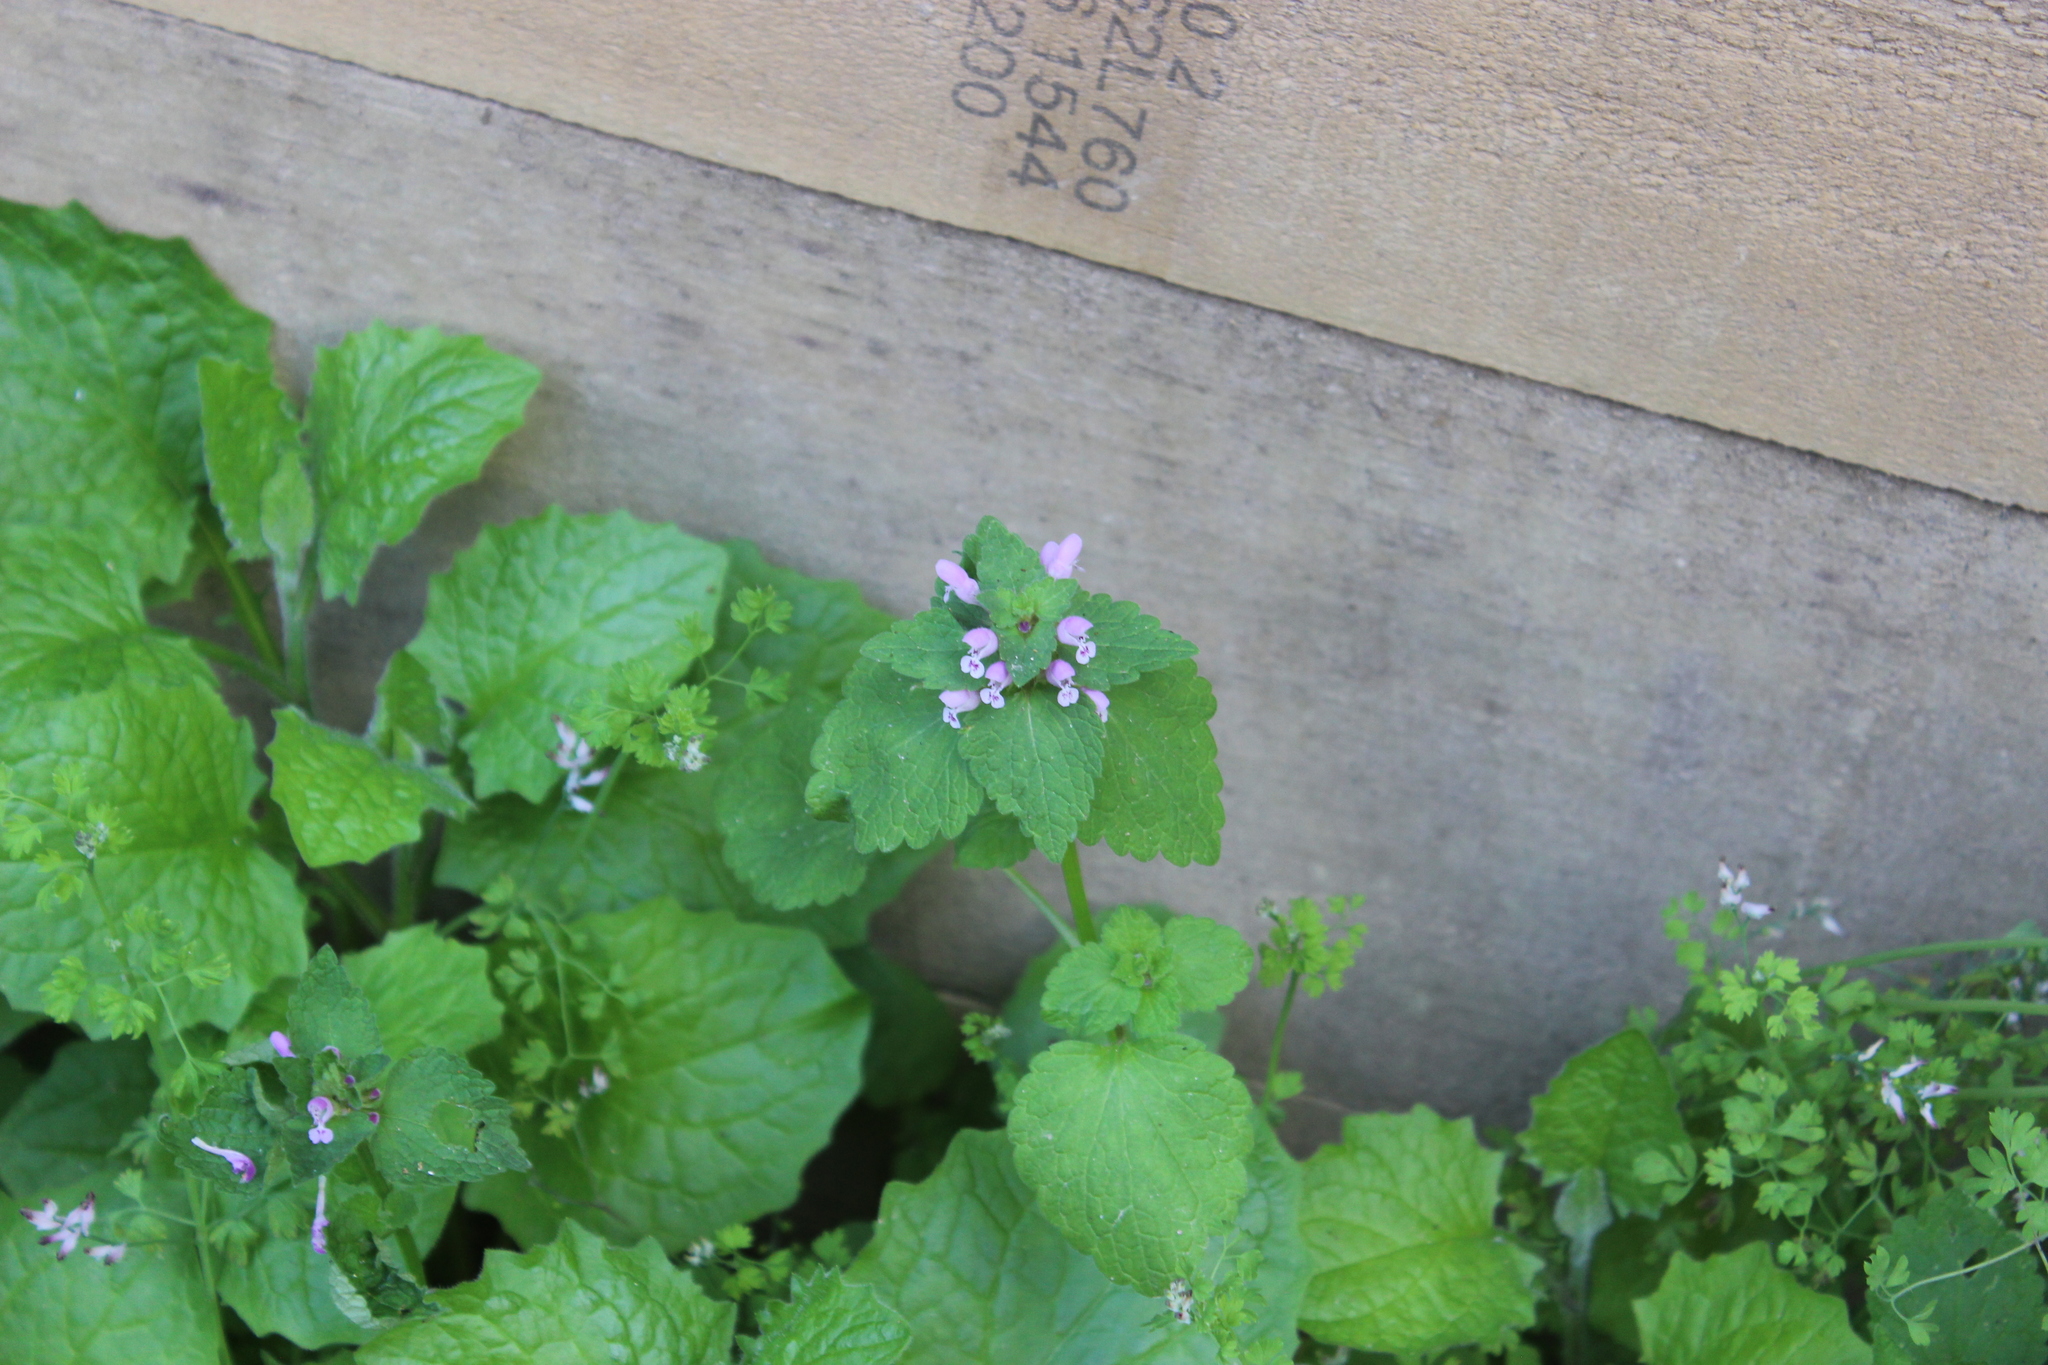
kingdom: Plantae
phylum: Tracheophyta
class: Magnoliopsida
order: Lamiales
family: Lamiaceae
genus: Lamium
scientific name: Lamium purpureum
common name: Red dead-nettle
